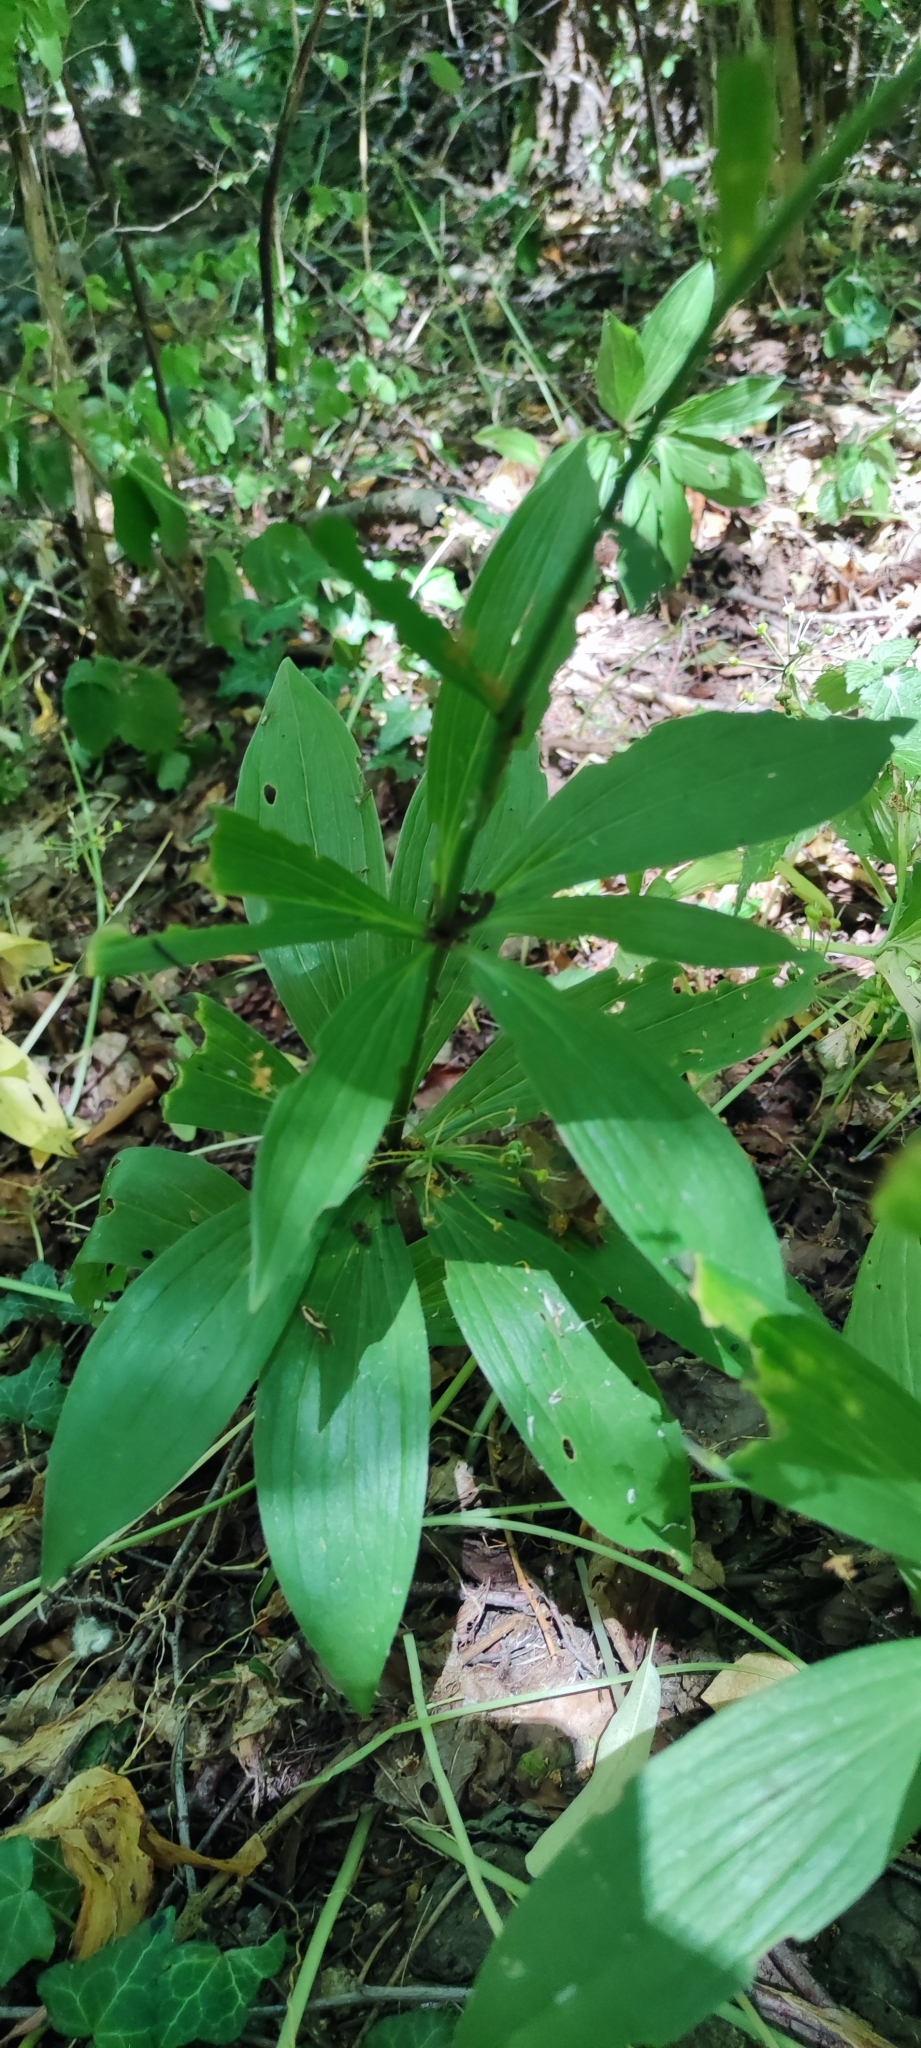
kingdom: Plantae
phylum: Tracheophyta
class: Liliopsida
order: Liliales
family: Liliaceae
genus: Lilium
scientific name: Lilium martagon
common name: Martagon lily
